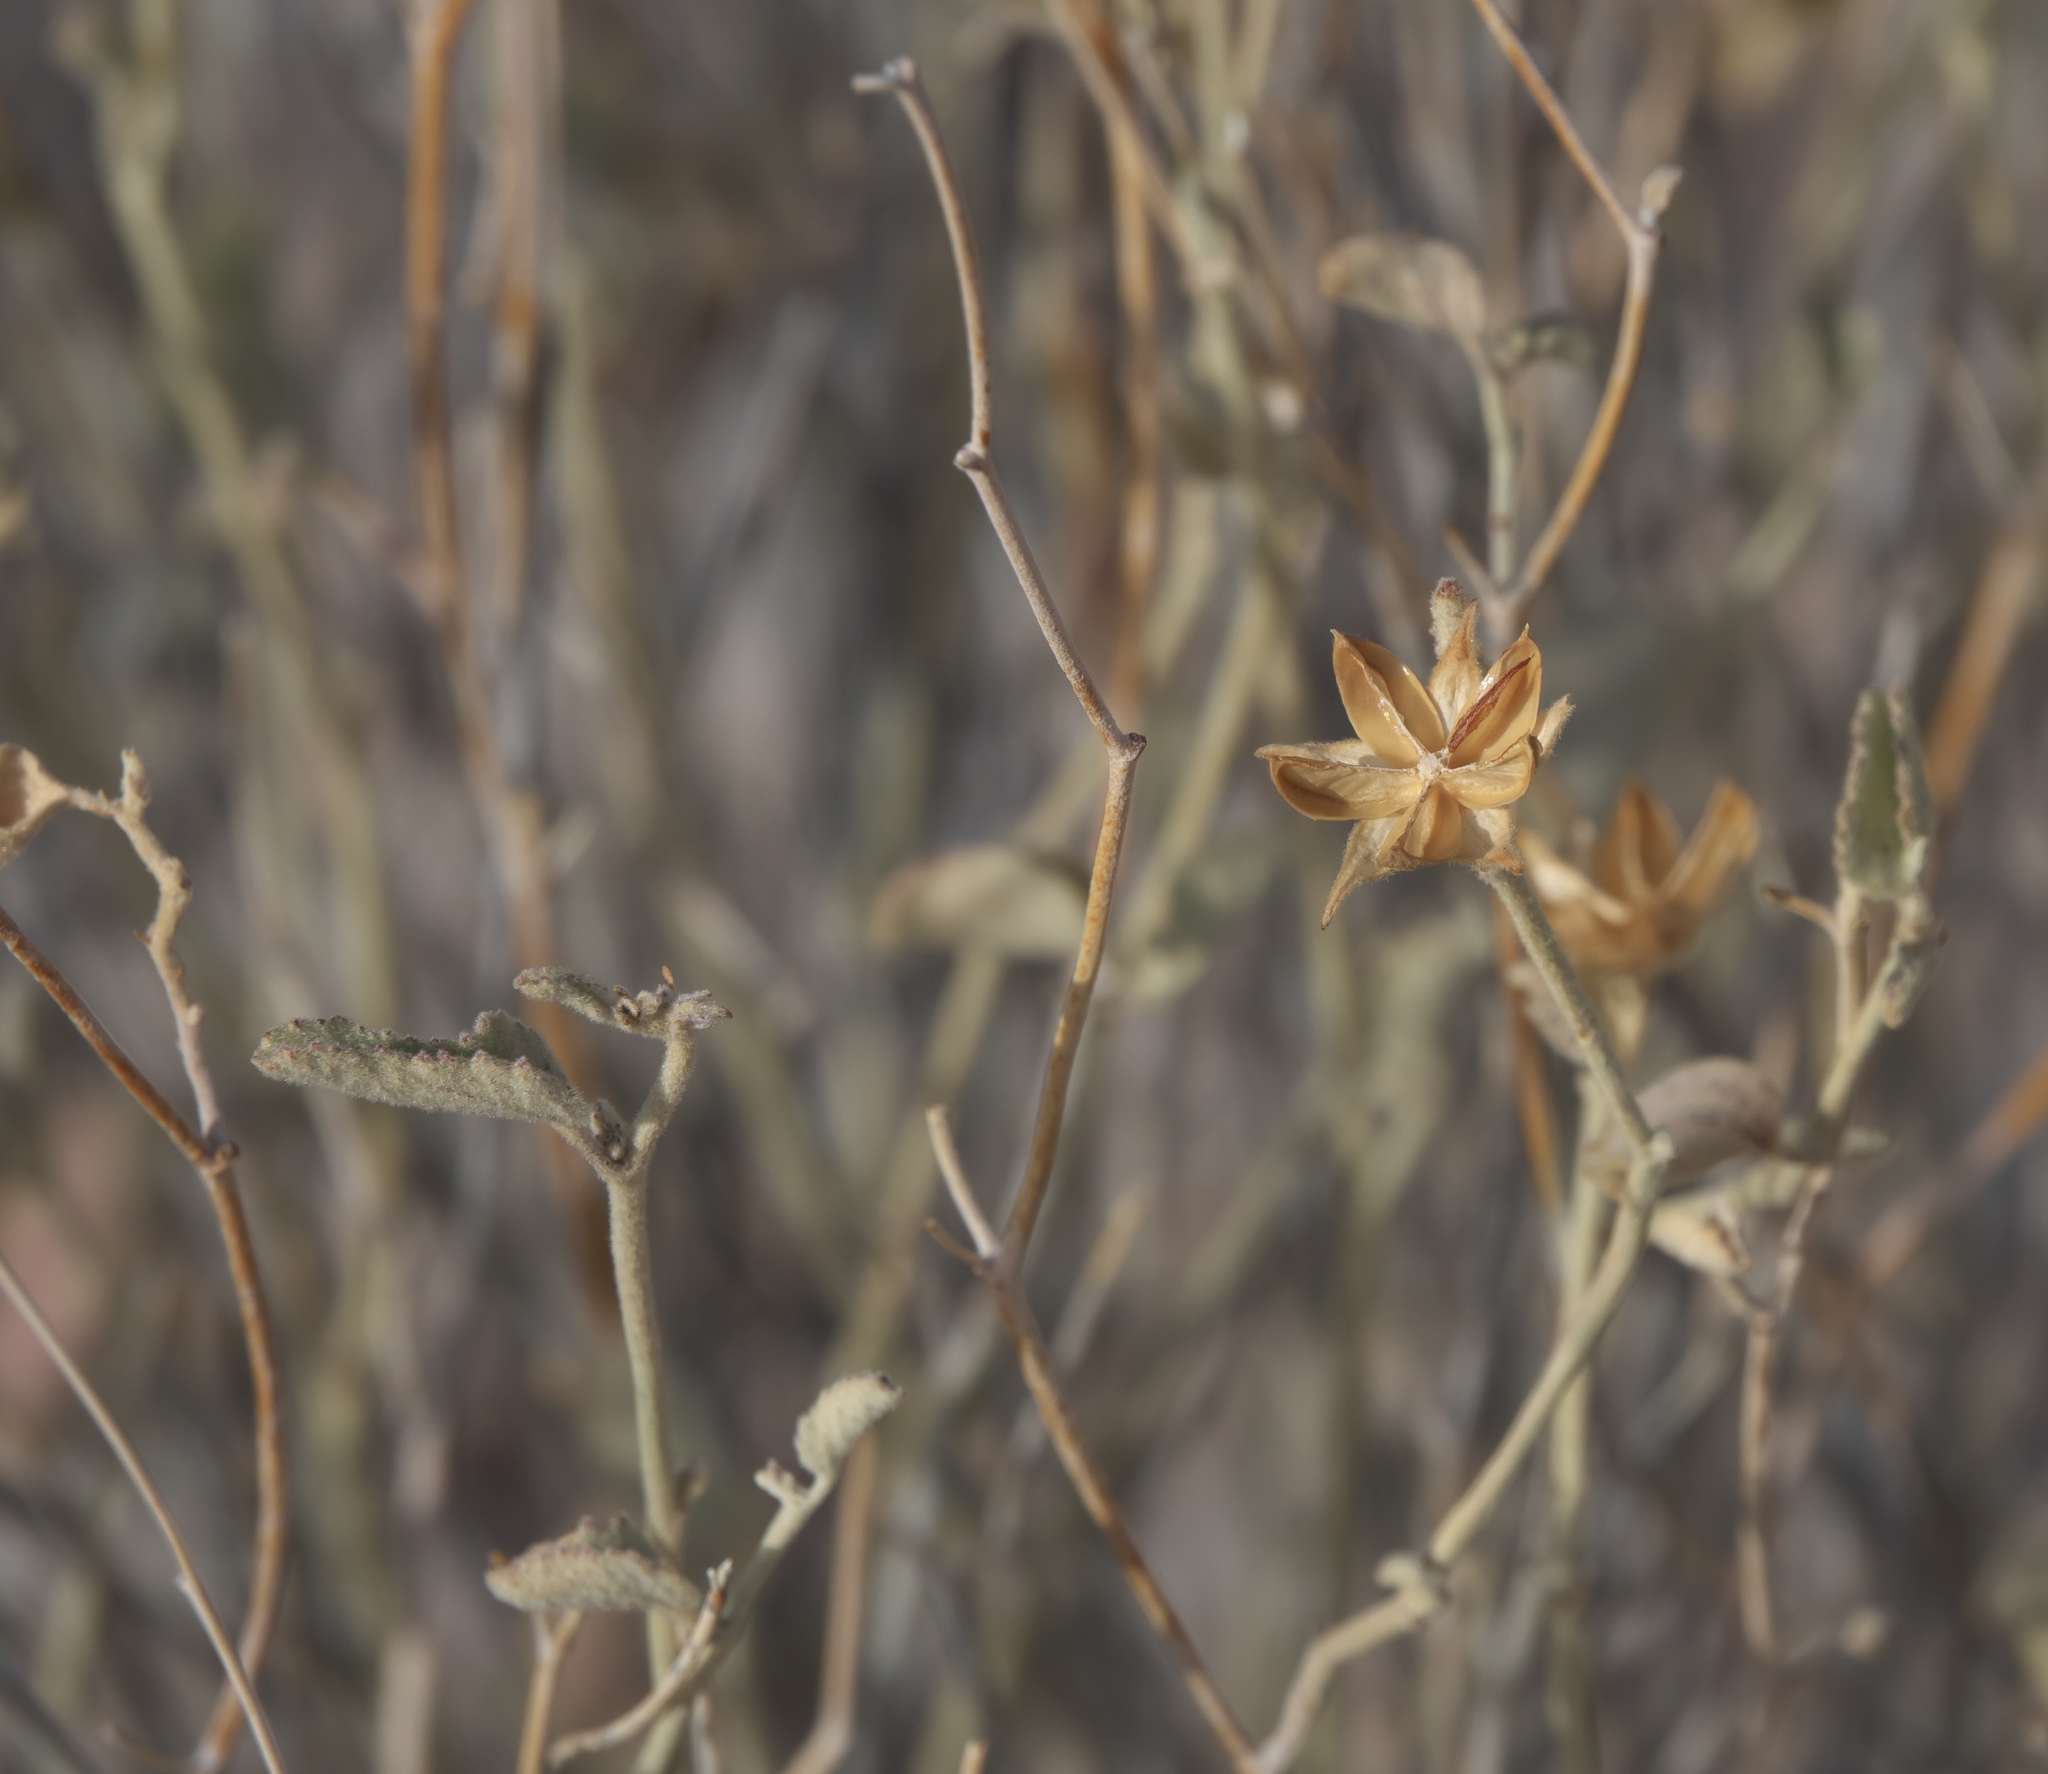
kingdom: Plantae
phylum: Tracheophyta
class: Magnoliopsida
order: Malvales
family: Malvaceae
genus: Hibiscus
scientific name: Hibiscus denudatus
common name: Paleface
